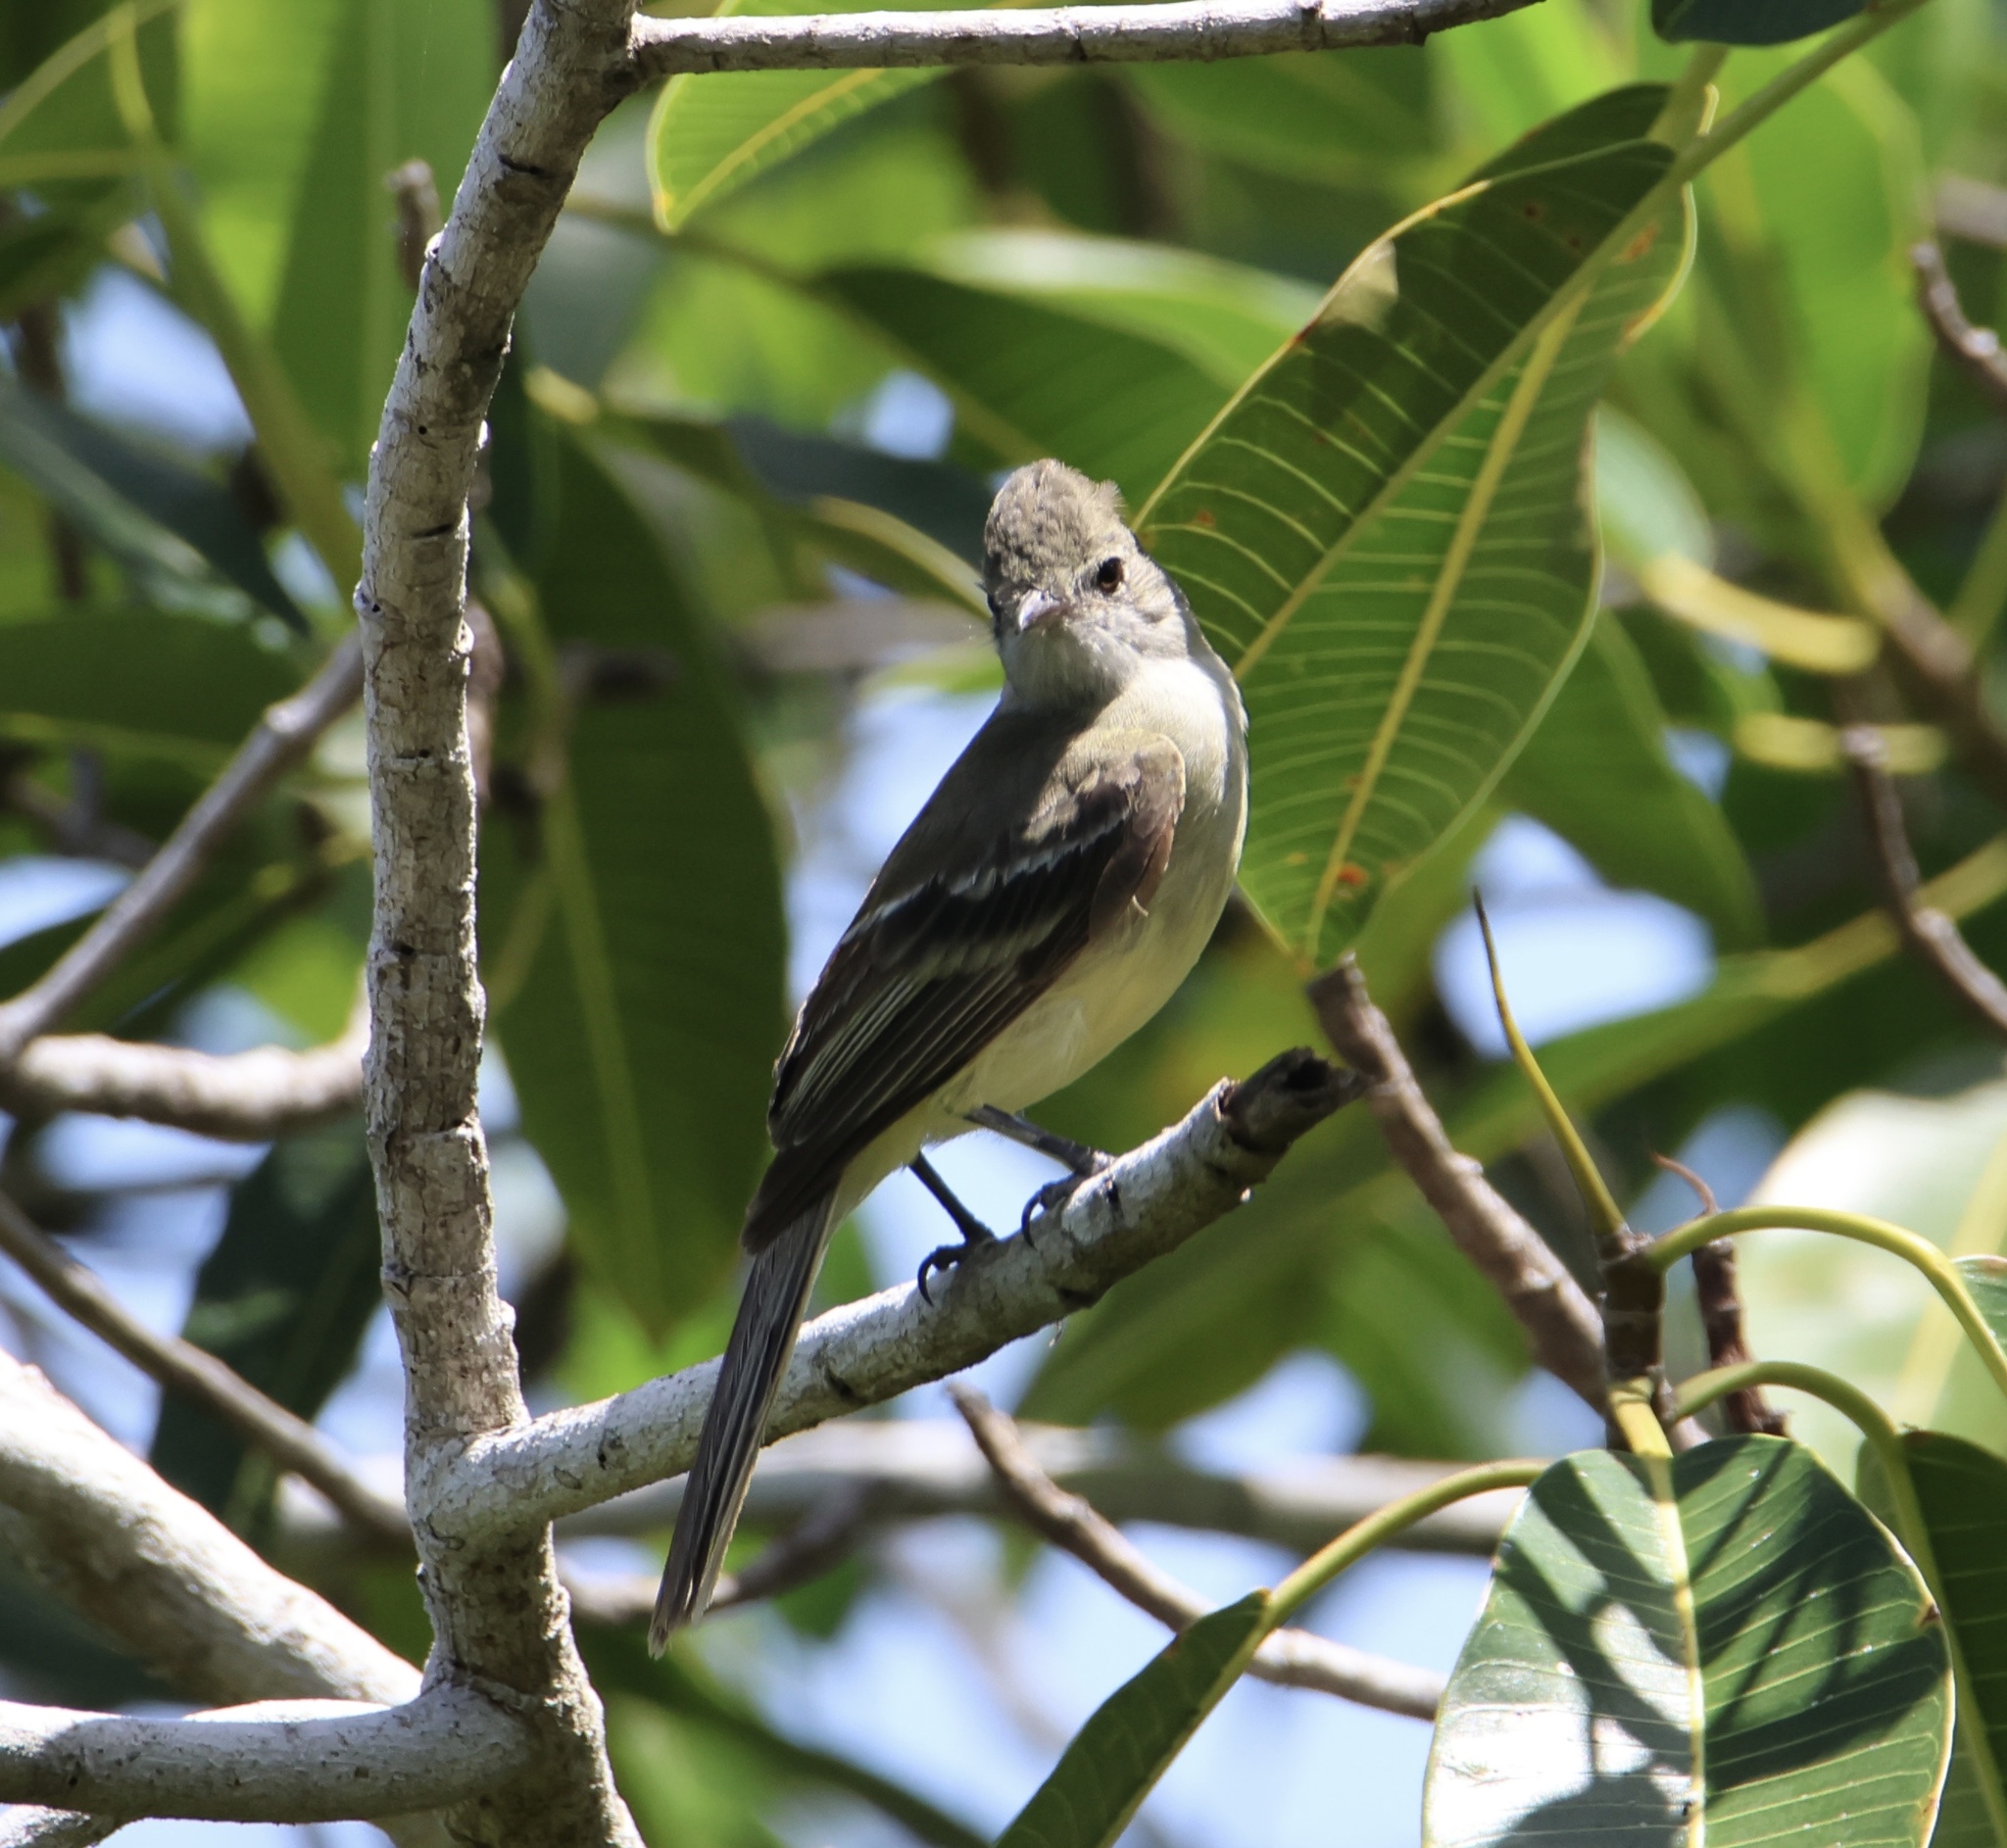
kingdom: Animalia
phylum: Chordata
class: Aves
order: Passeriformes
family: Tyrannidae
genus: Elaenia
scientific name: Elaenia flavogaster
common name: Yellow-bellied elaenia
